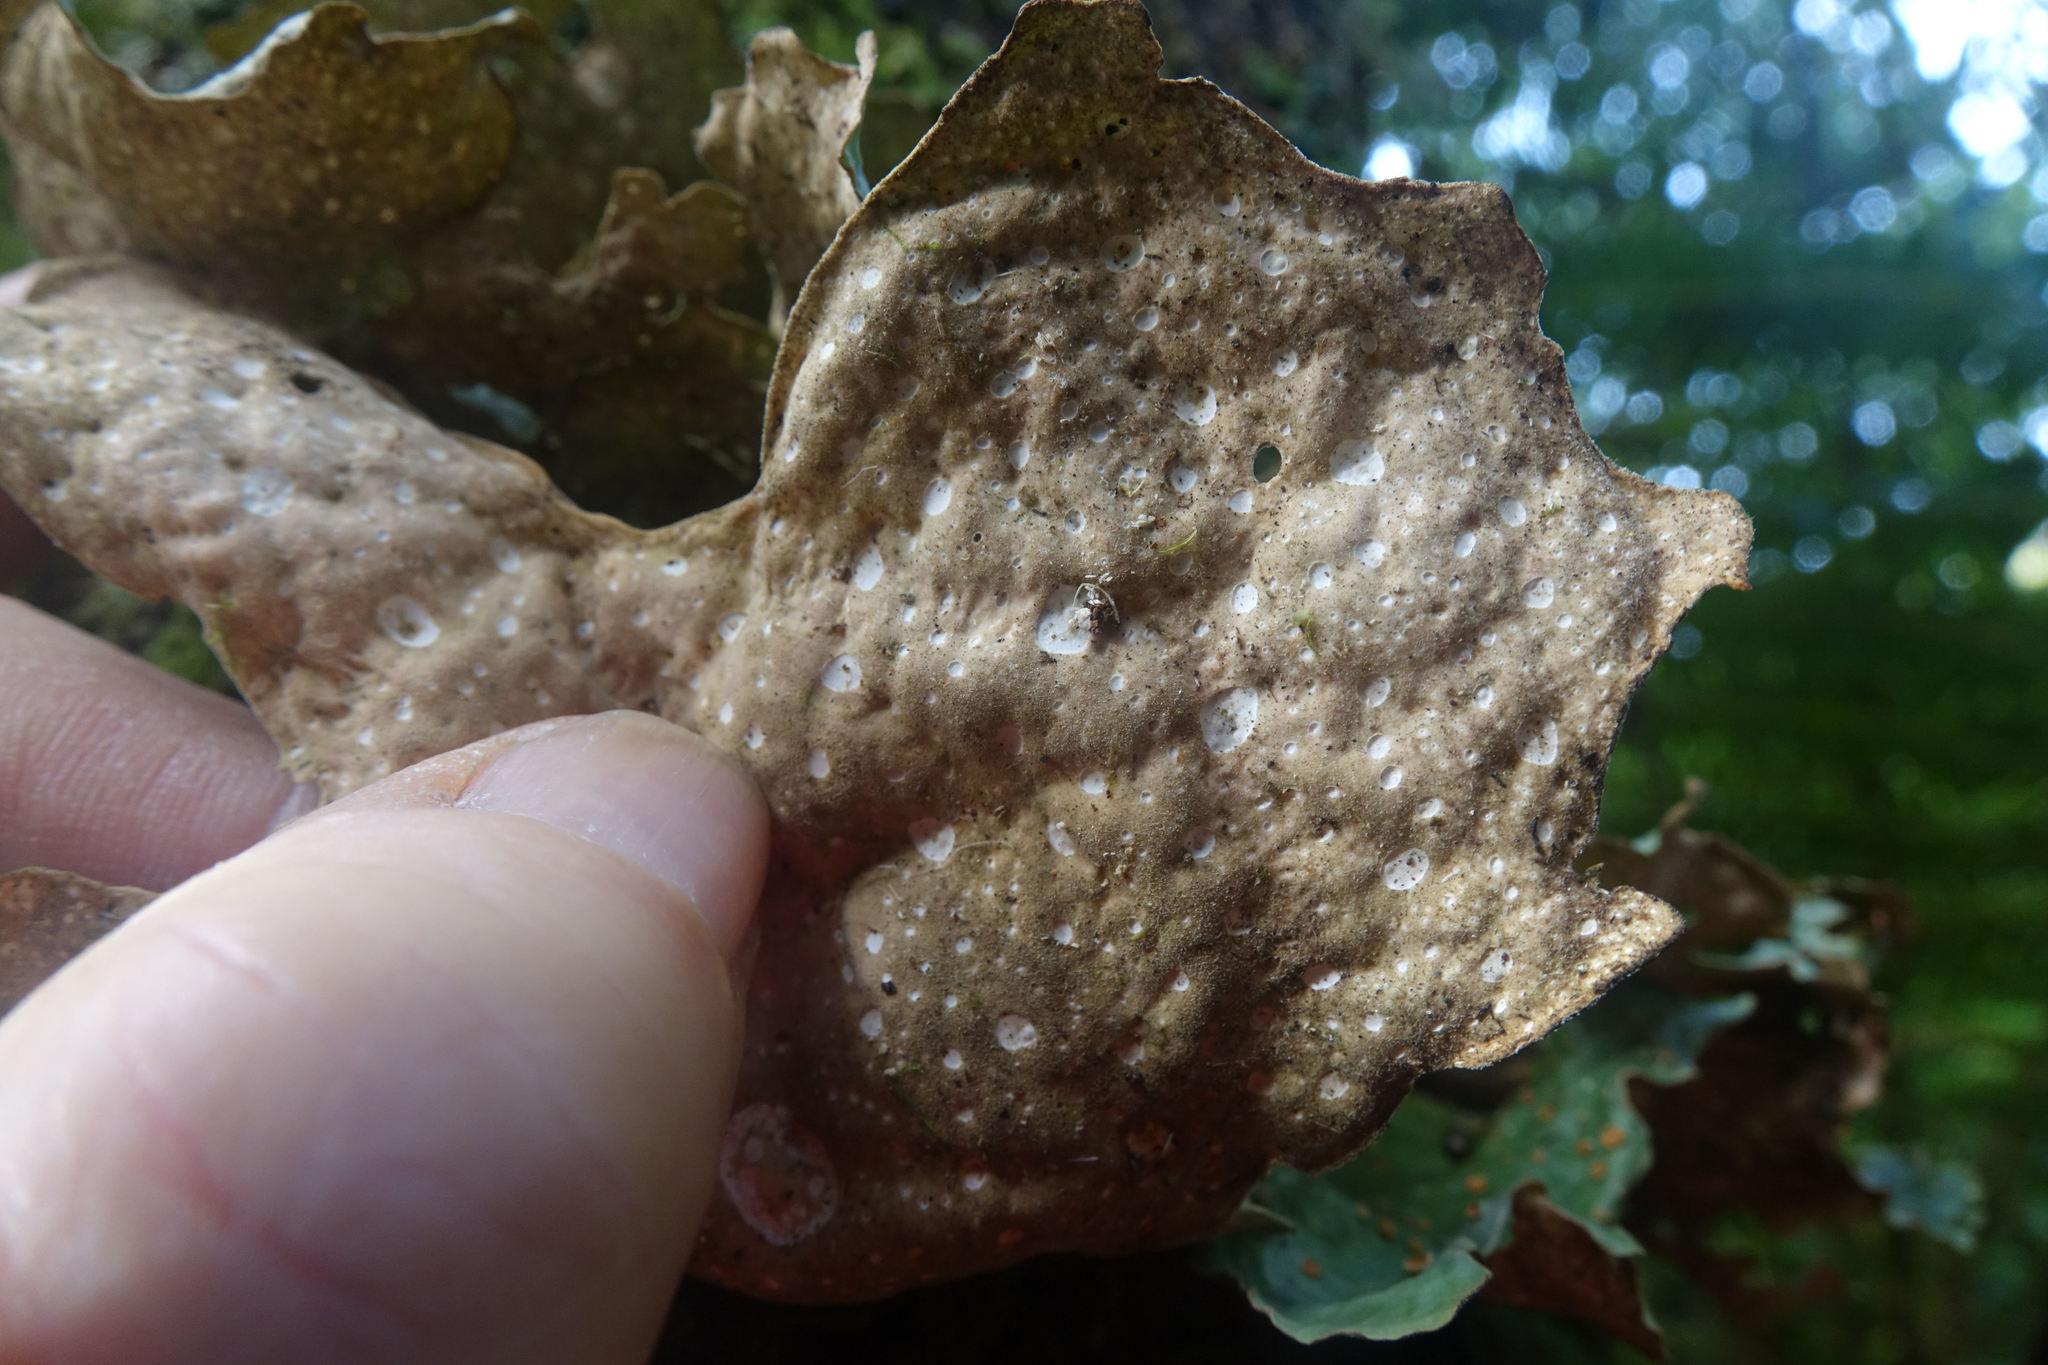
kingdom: Fungi
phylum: Ascomycota
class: Lecanoromycetes
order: Peltigerales
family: Lobariaceae
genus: Sticta
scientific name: Sticta latifrons
